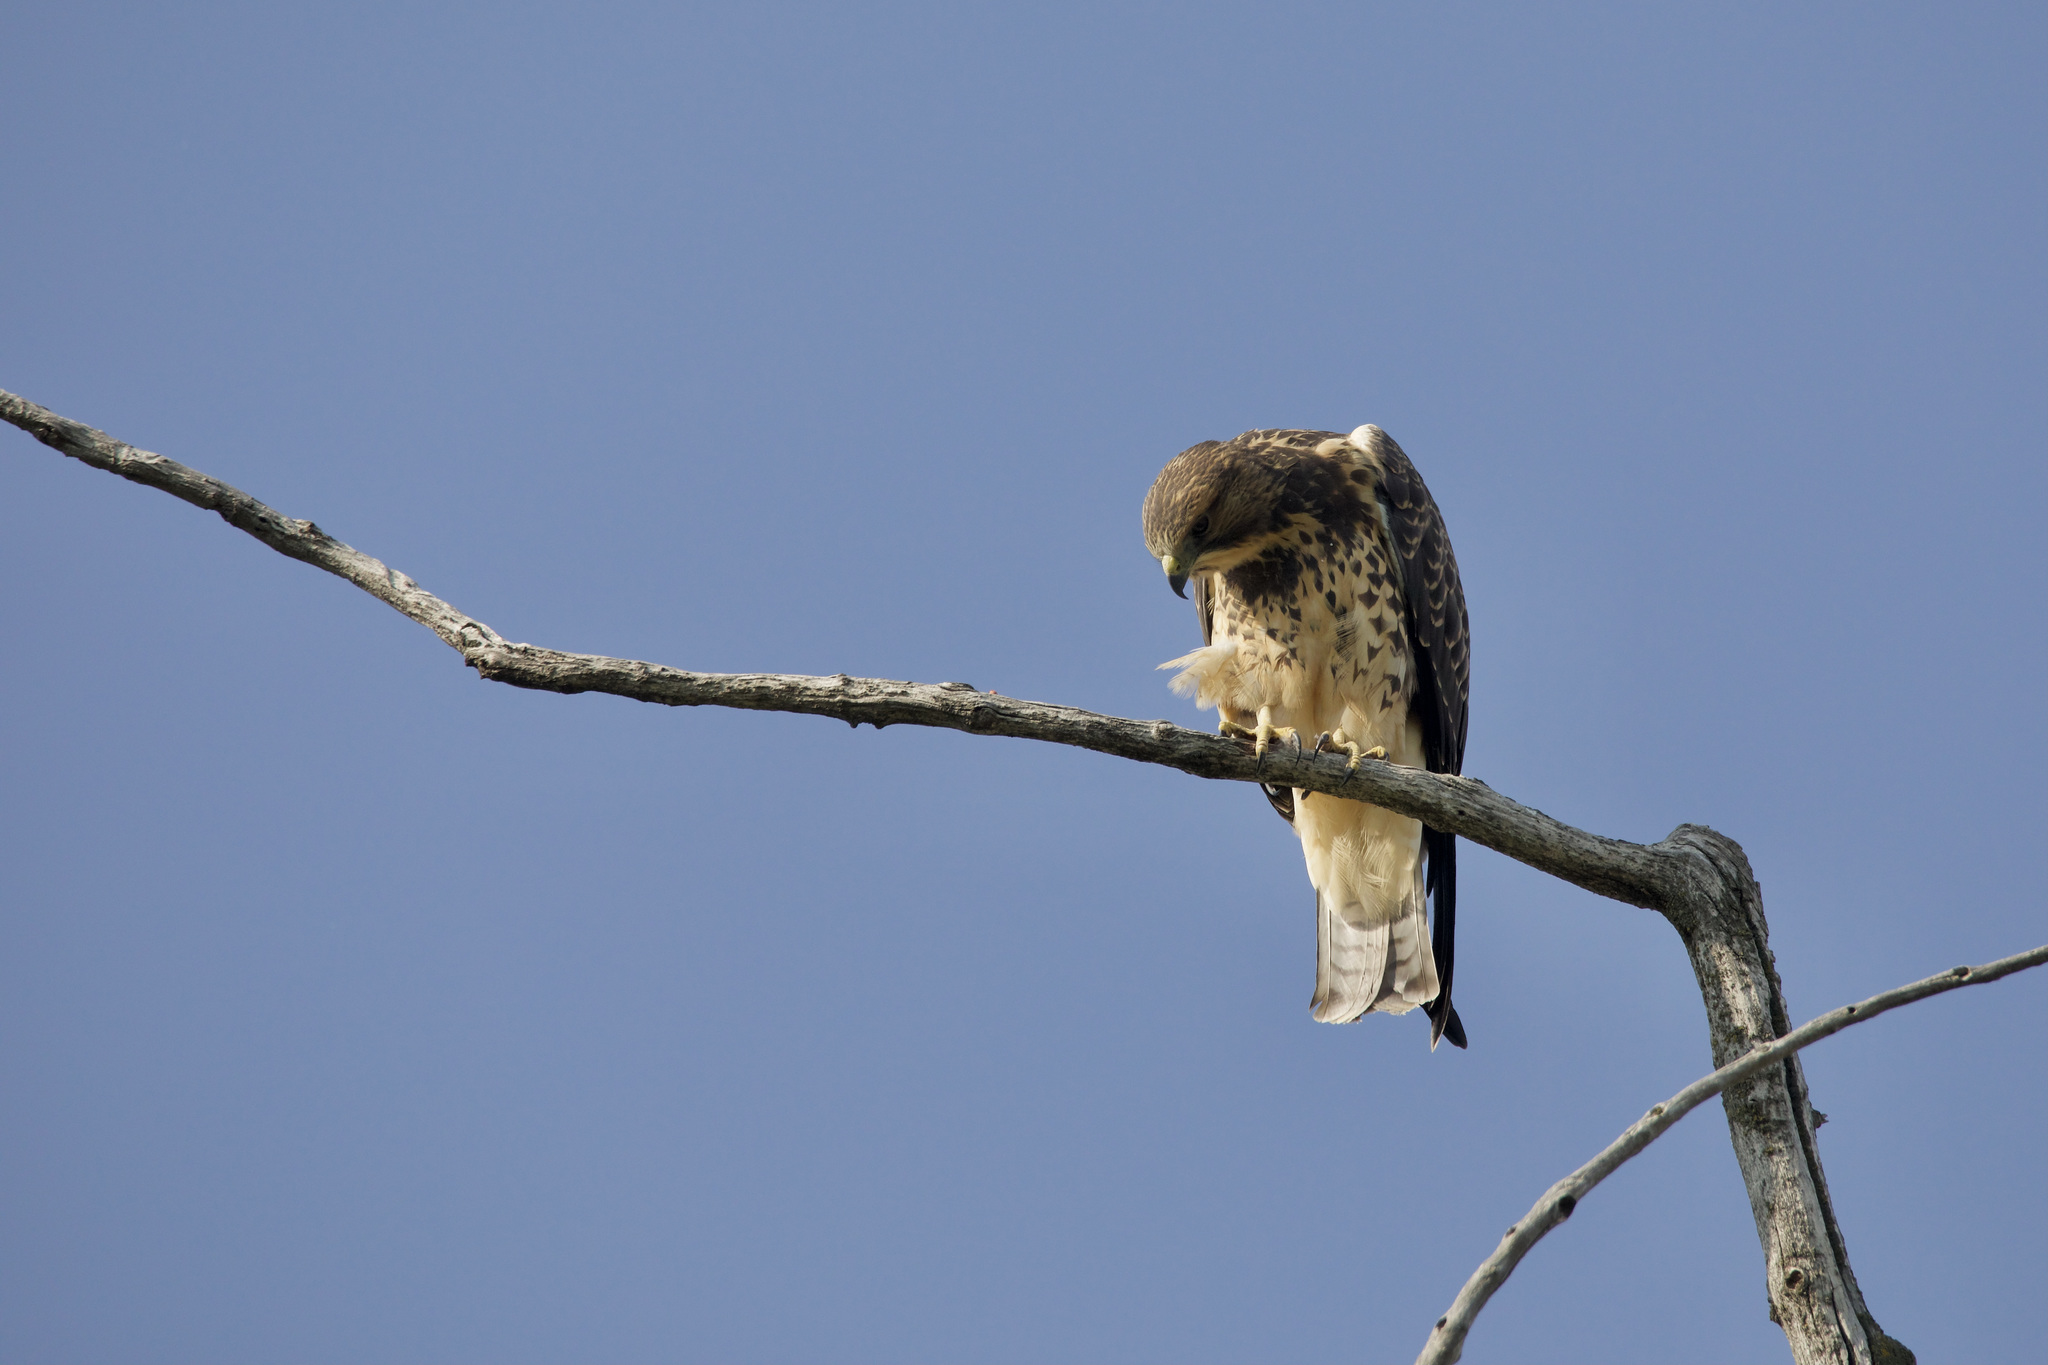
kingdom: Animalia
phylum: Chordata
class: Aves
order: Accipitriformes
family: Accipitridae
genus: Buteo
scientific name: Buteo swainsoni
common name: Swainson's hawk
